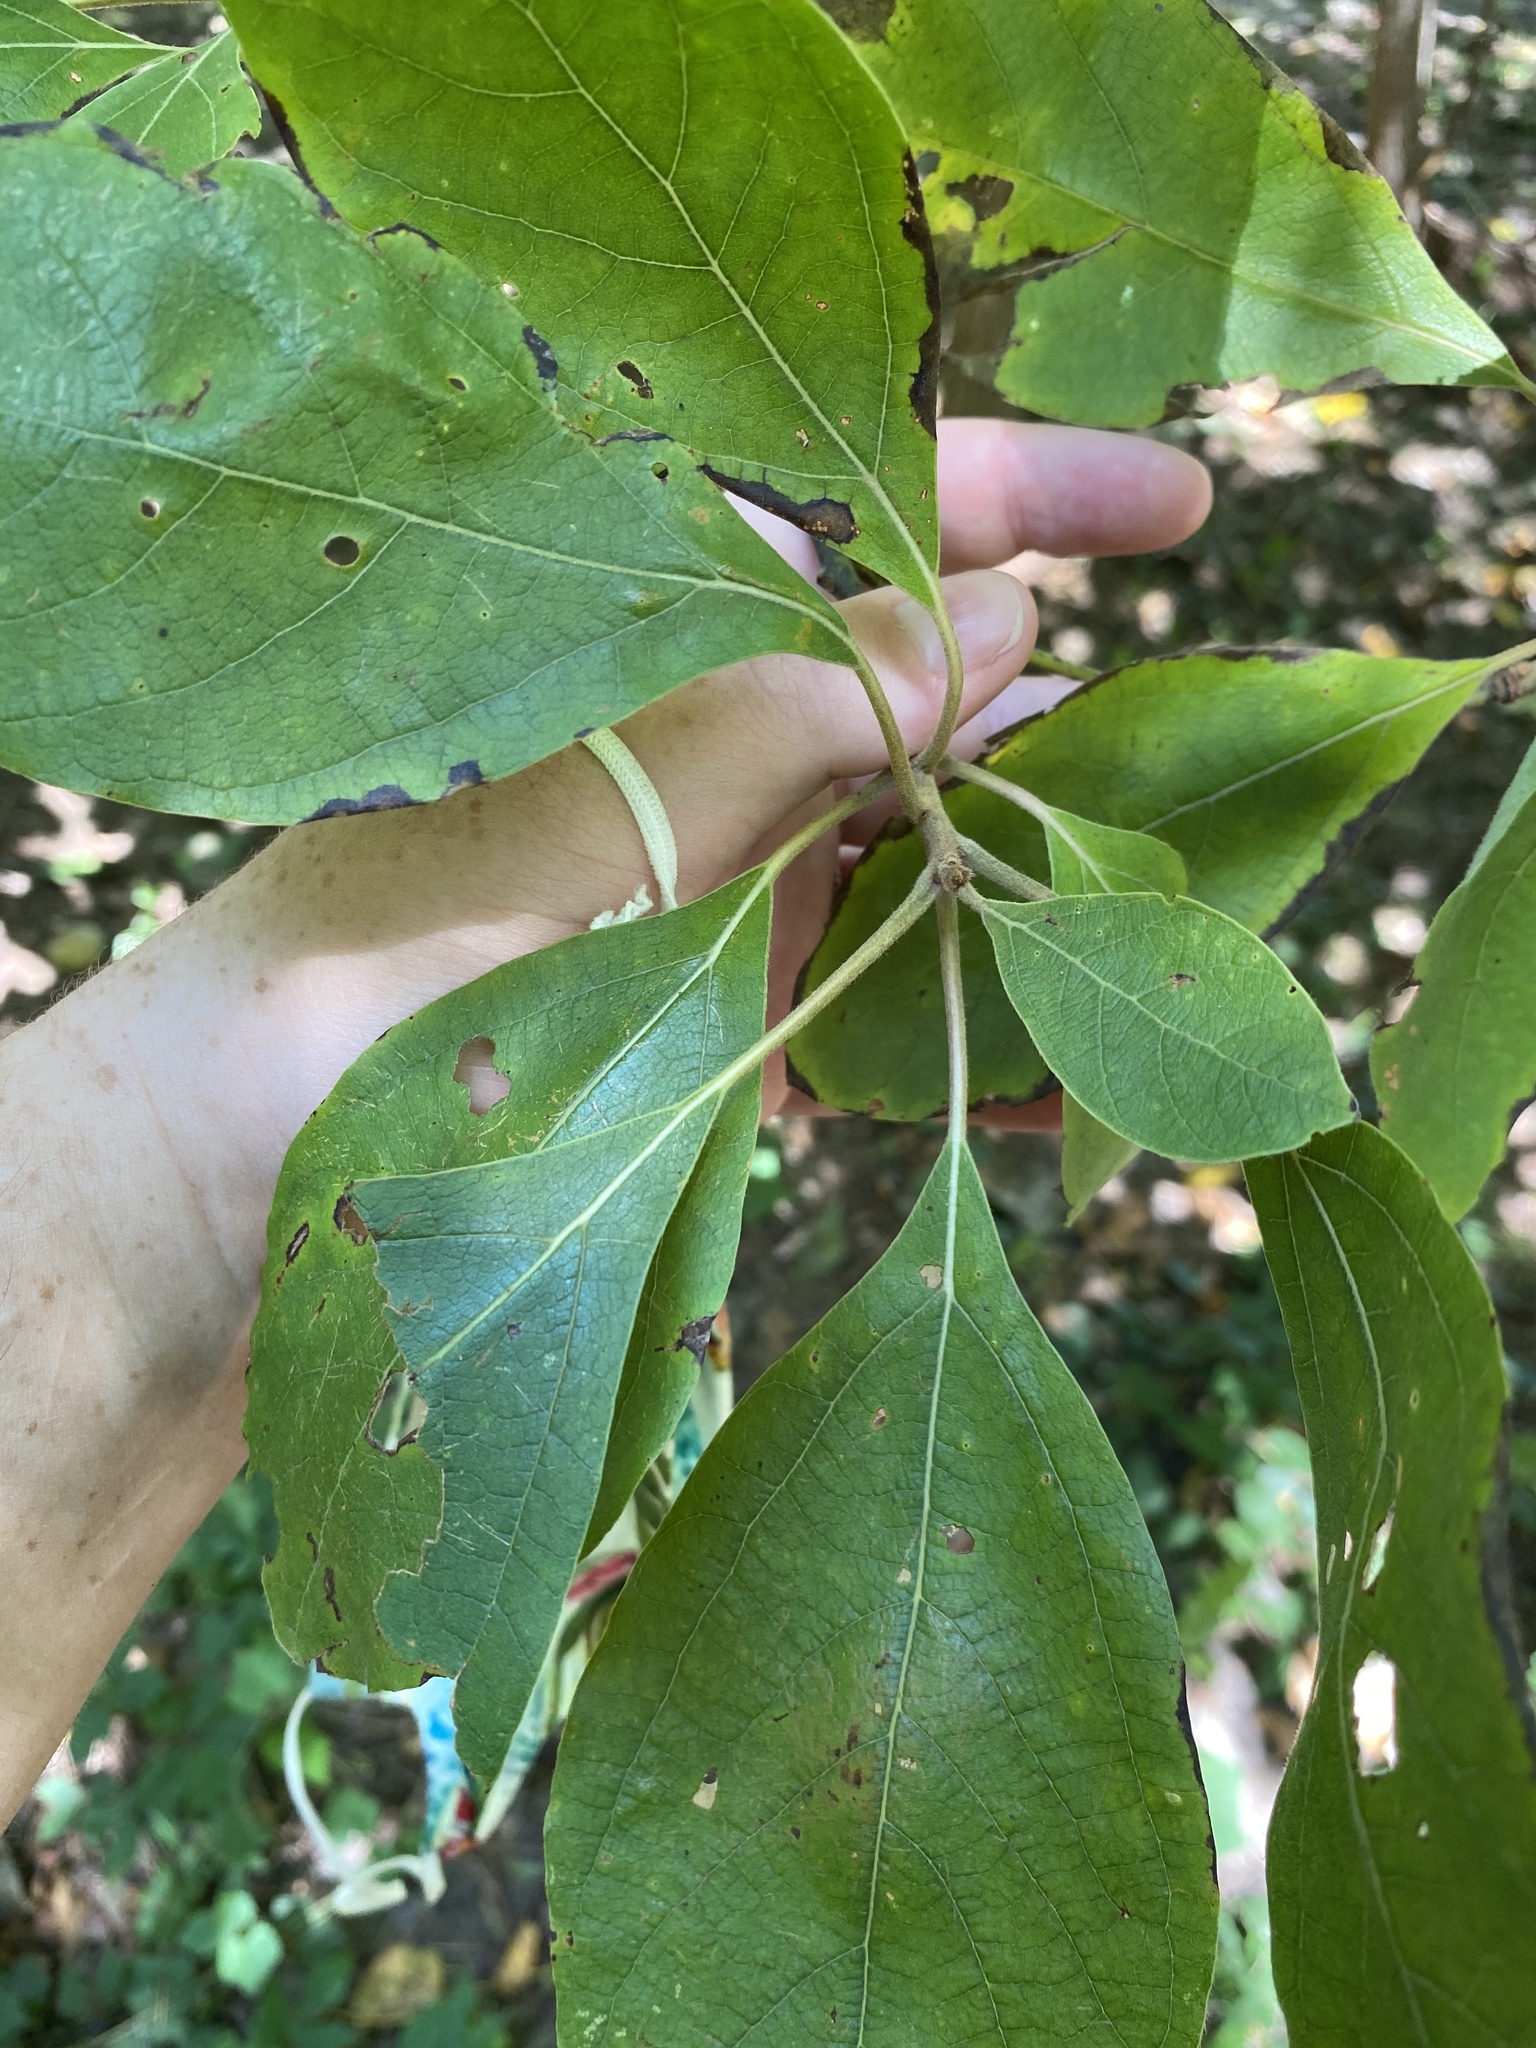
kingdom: Plantae
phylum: Tracheophyta
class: Magnoliopsida
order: Laurales
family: Lauraceae
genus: Sassafras
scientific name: Sassafras albidum
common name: Sassafras
